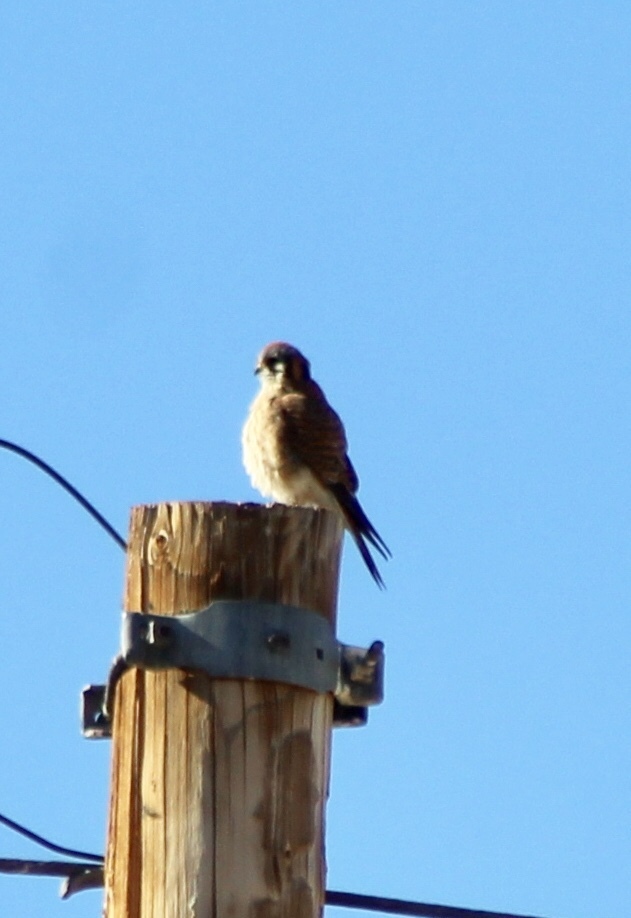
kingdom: Animalia
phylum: Chordata
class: Aves
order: Falconiformes
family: Falconidae
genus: Falco
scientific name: Falco sparverius
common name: American kestrel
